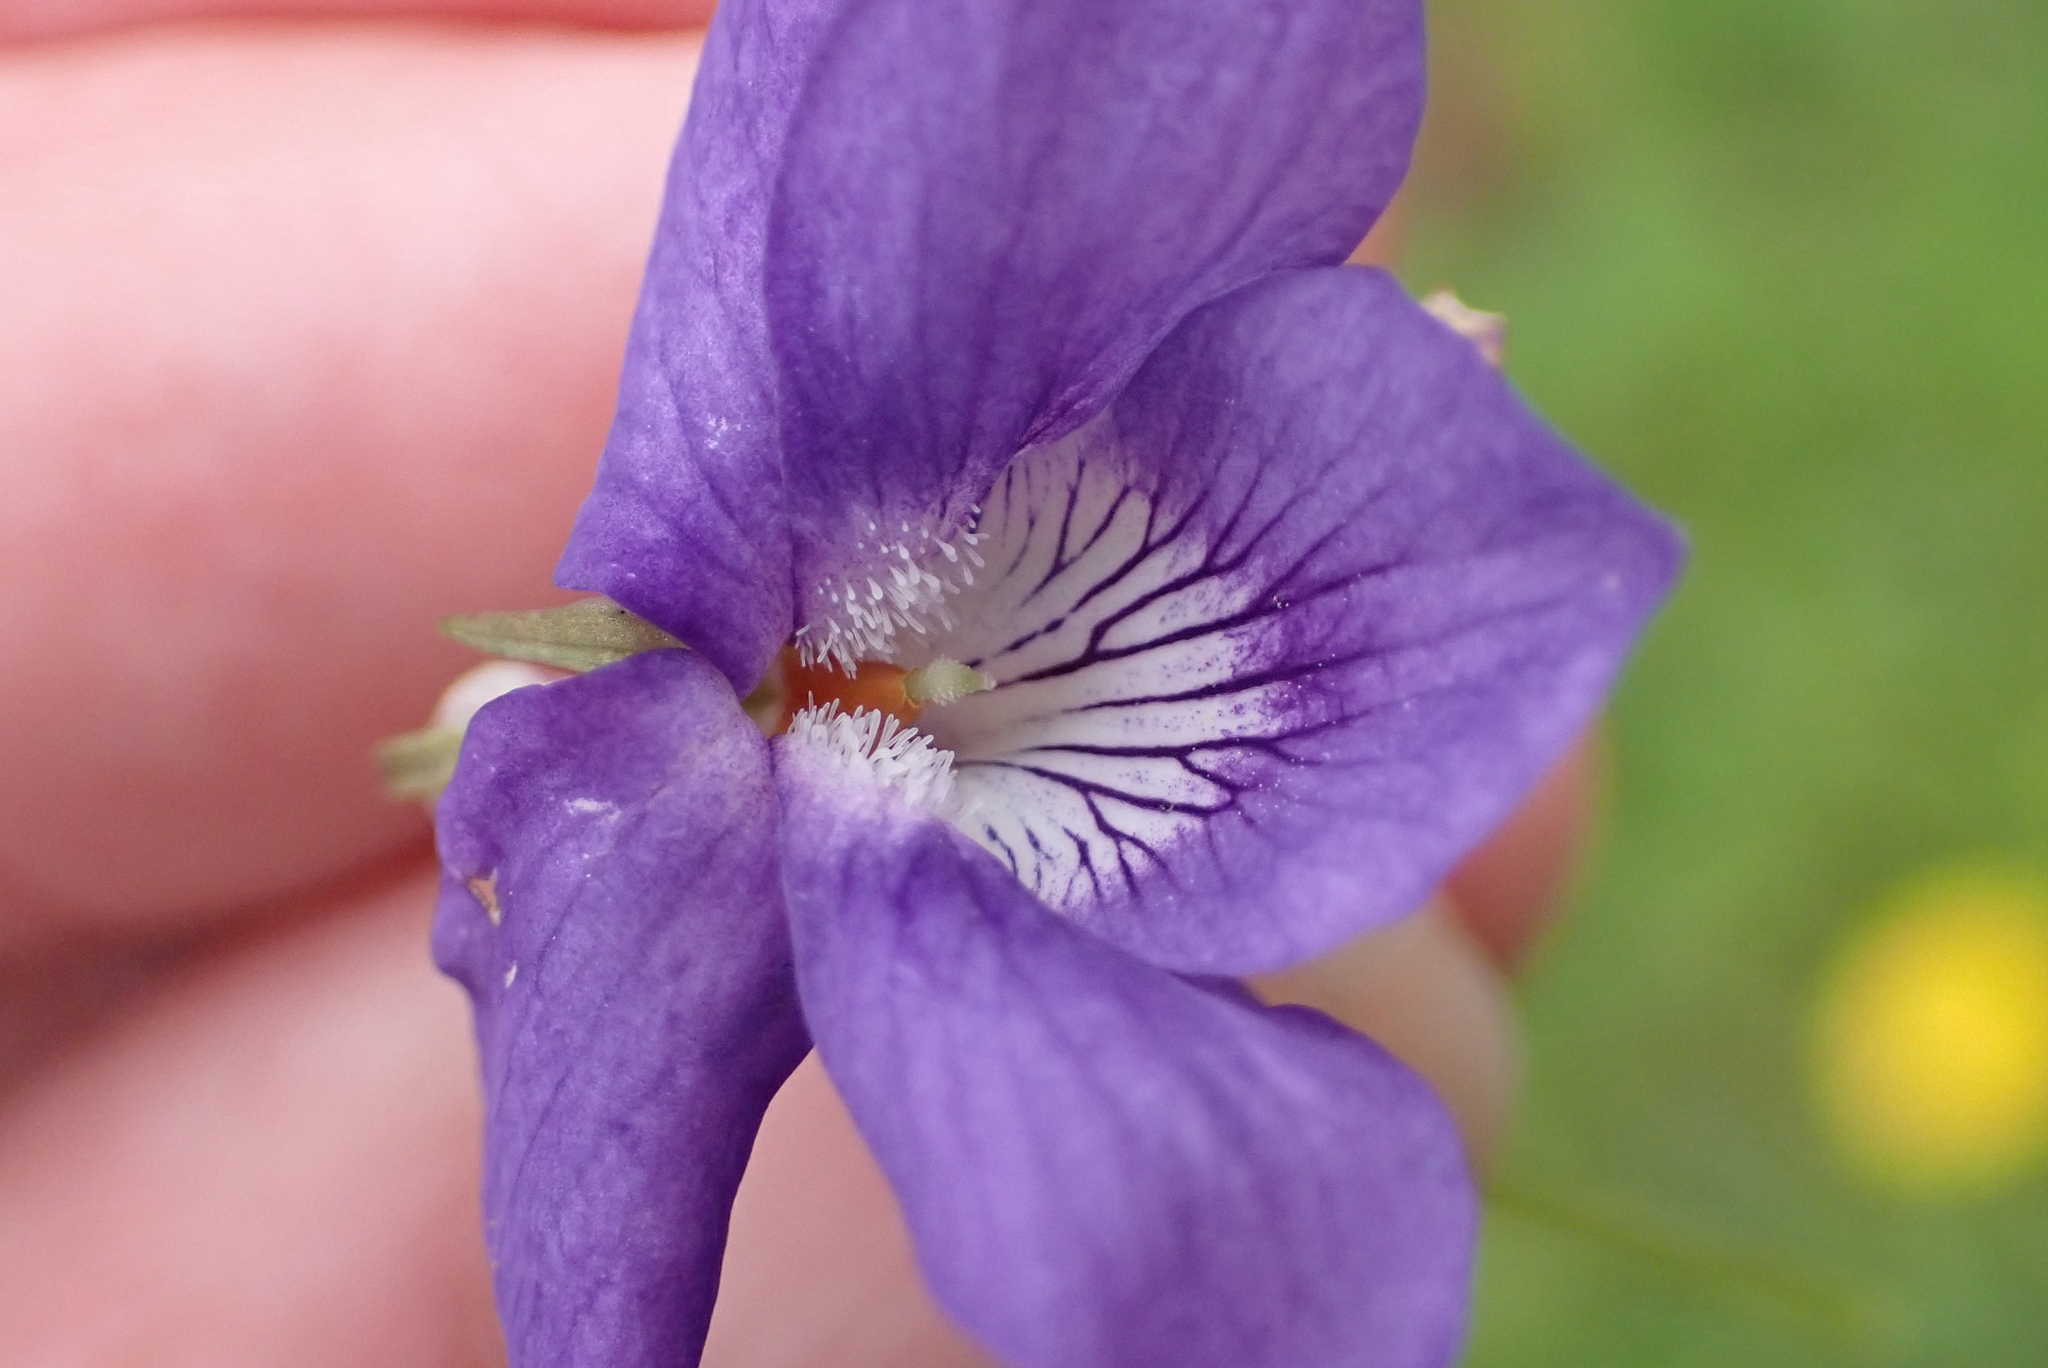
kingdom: Plantae
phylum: Tracheophyta
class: Magnoliopsida
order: Malpighiales
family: Violaceae
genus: Viola
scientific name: Viola riviniana
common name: Common dog-violet
